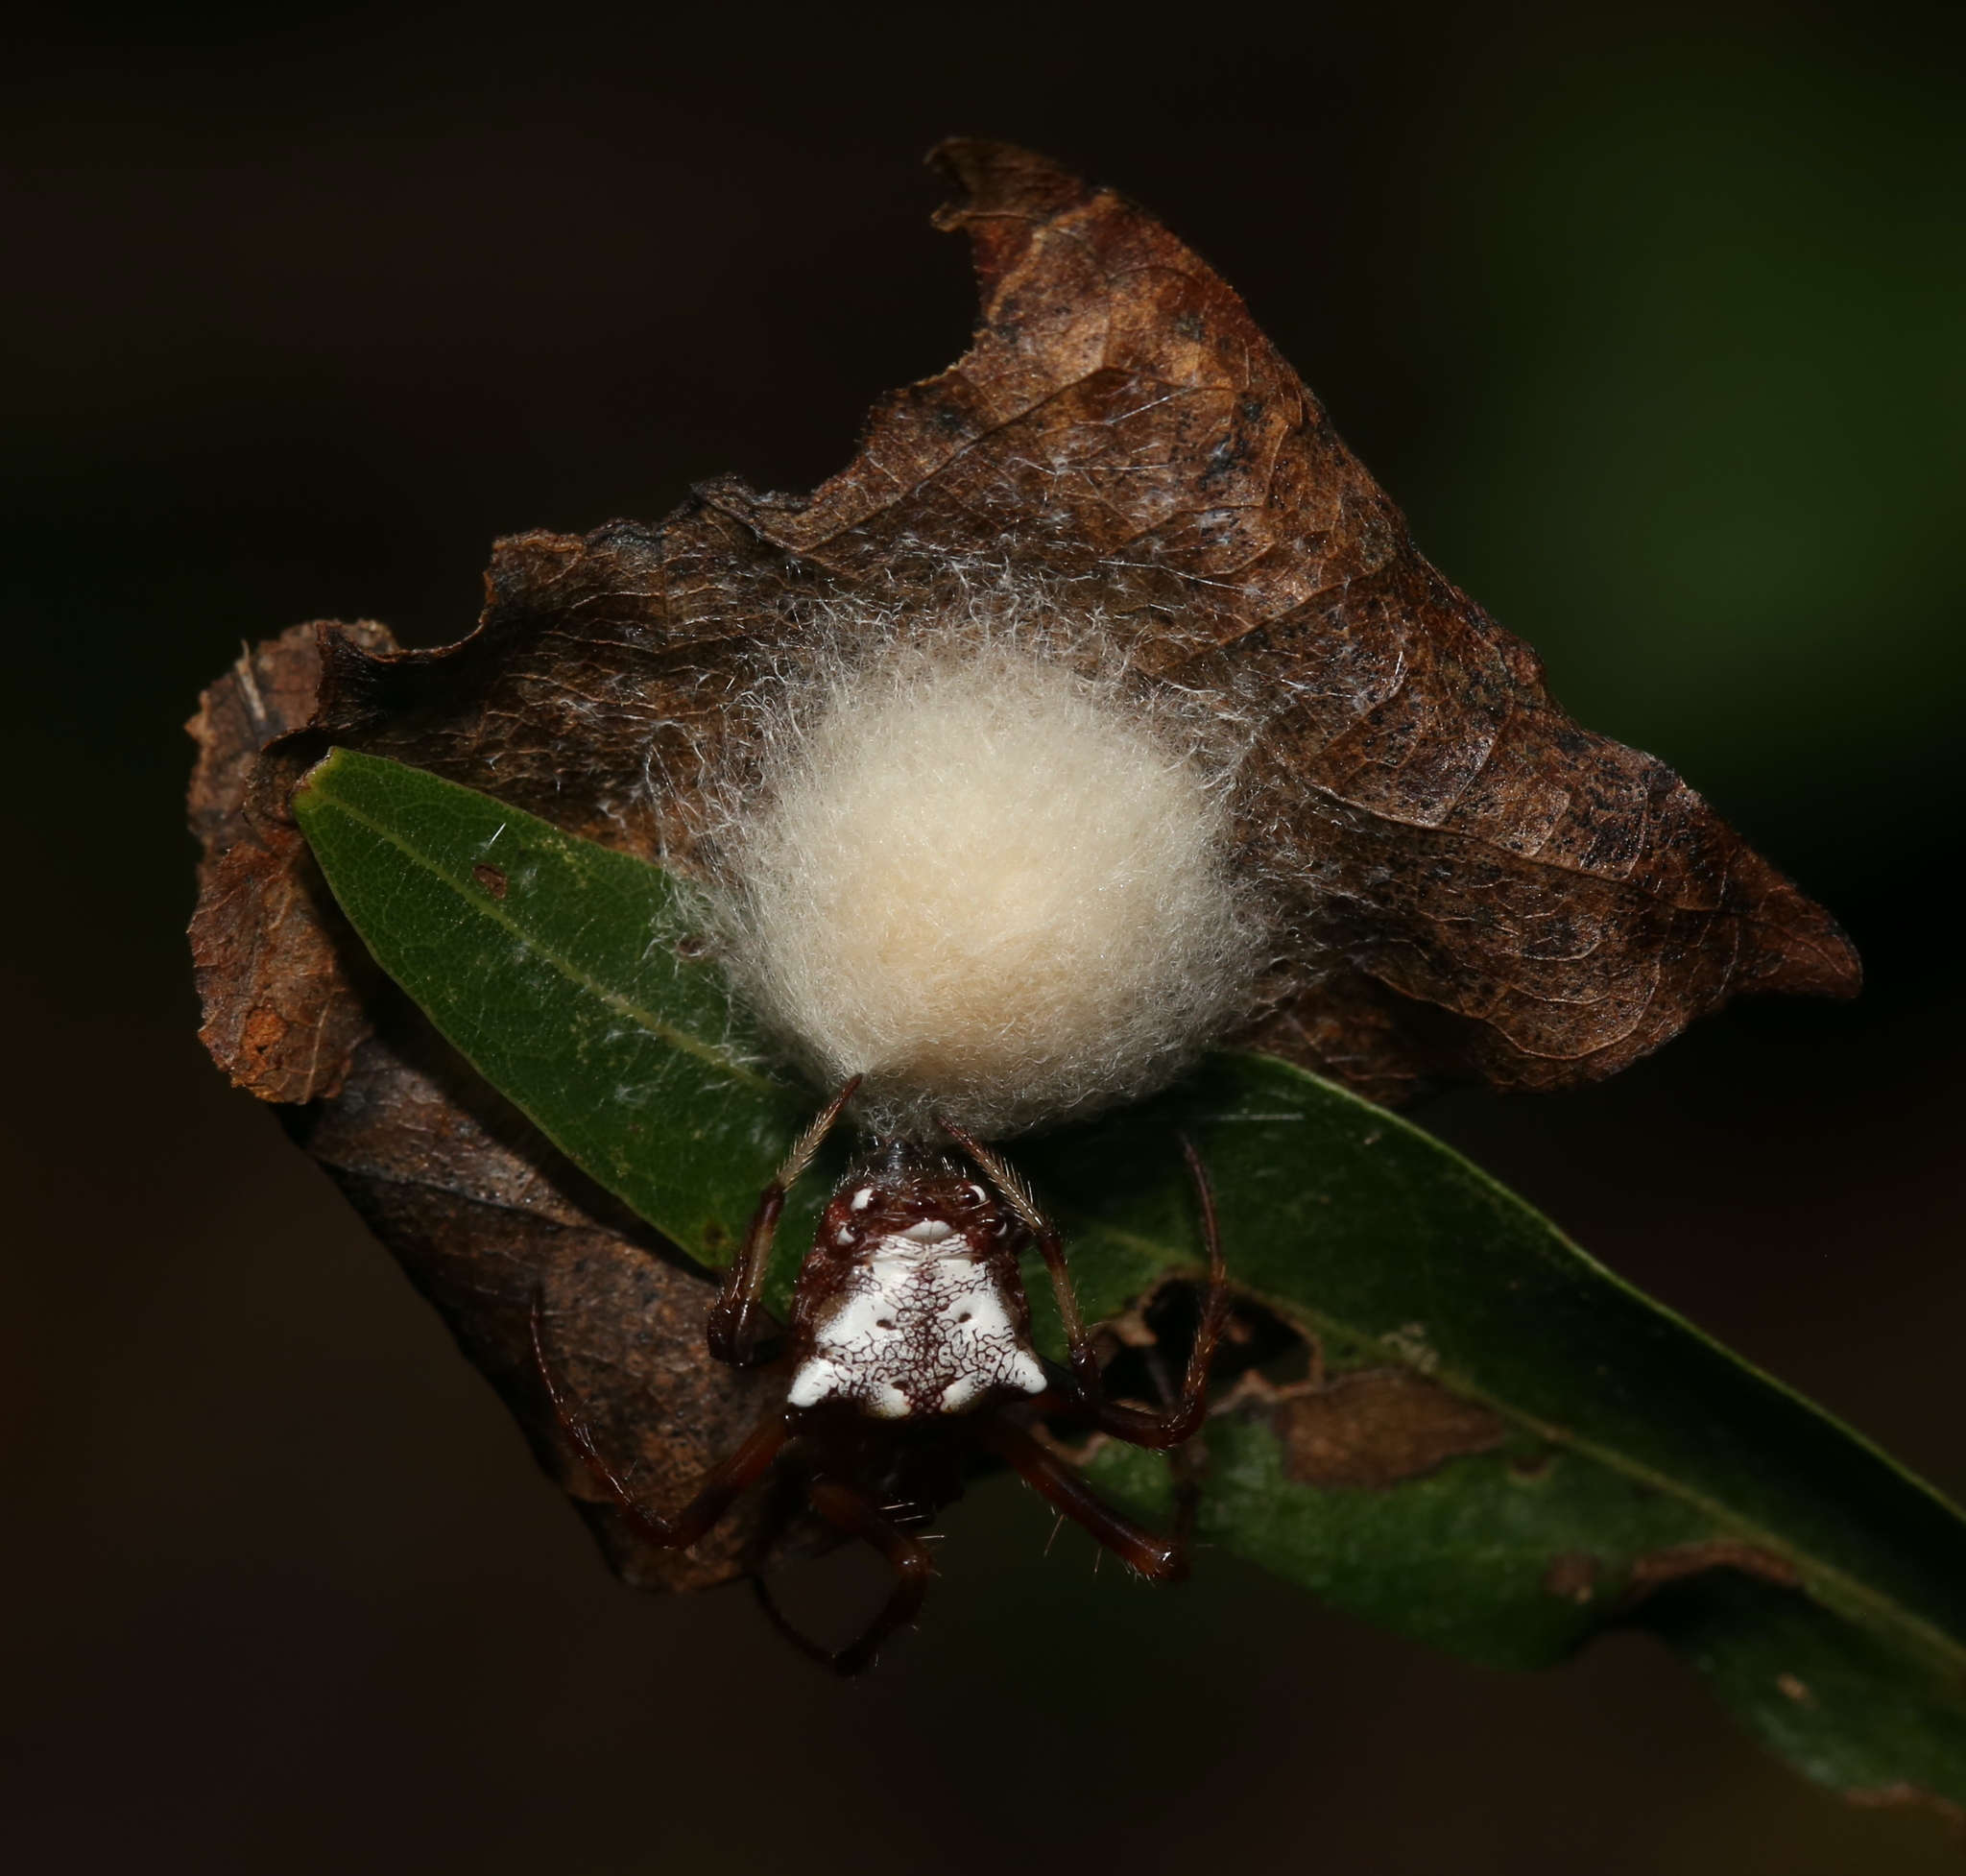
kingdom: Animalia
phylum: Arthropoda
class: Arachnida
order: Araneae
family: Araneidae
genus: Verrucosa
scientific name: Verrucosa arenata
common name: Orb weavers
